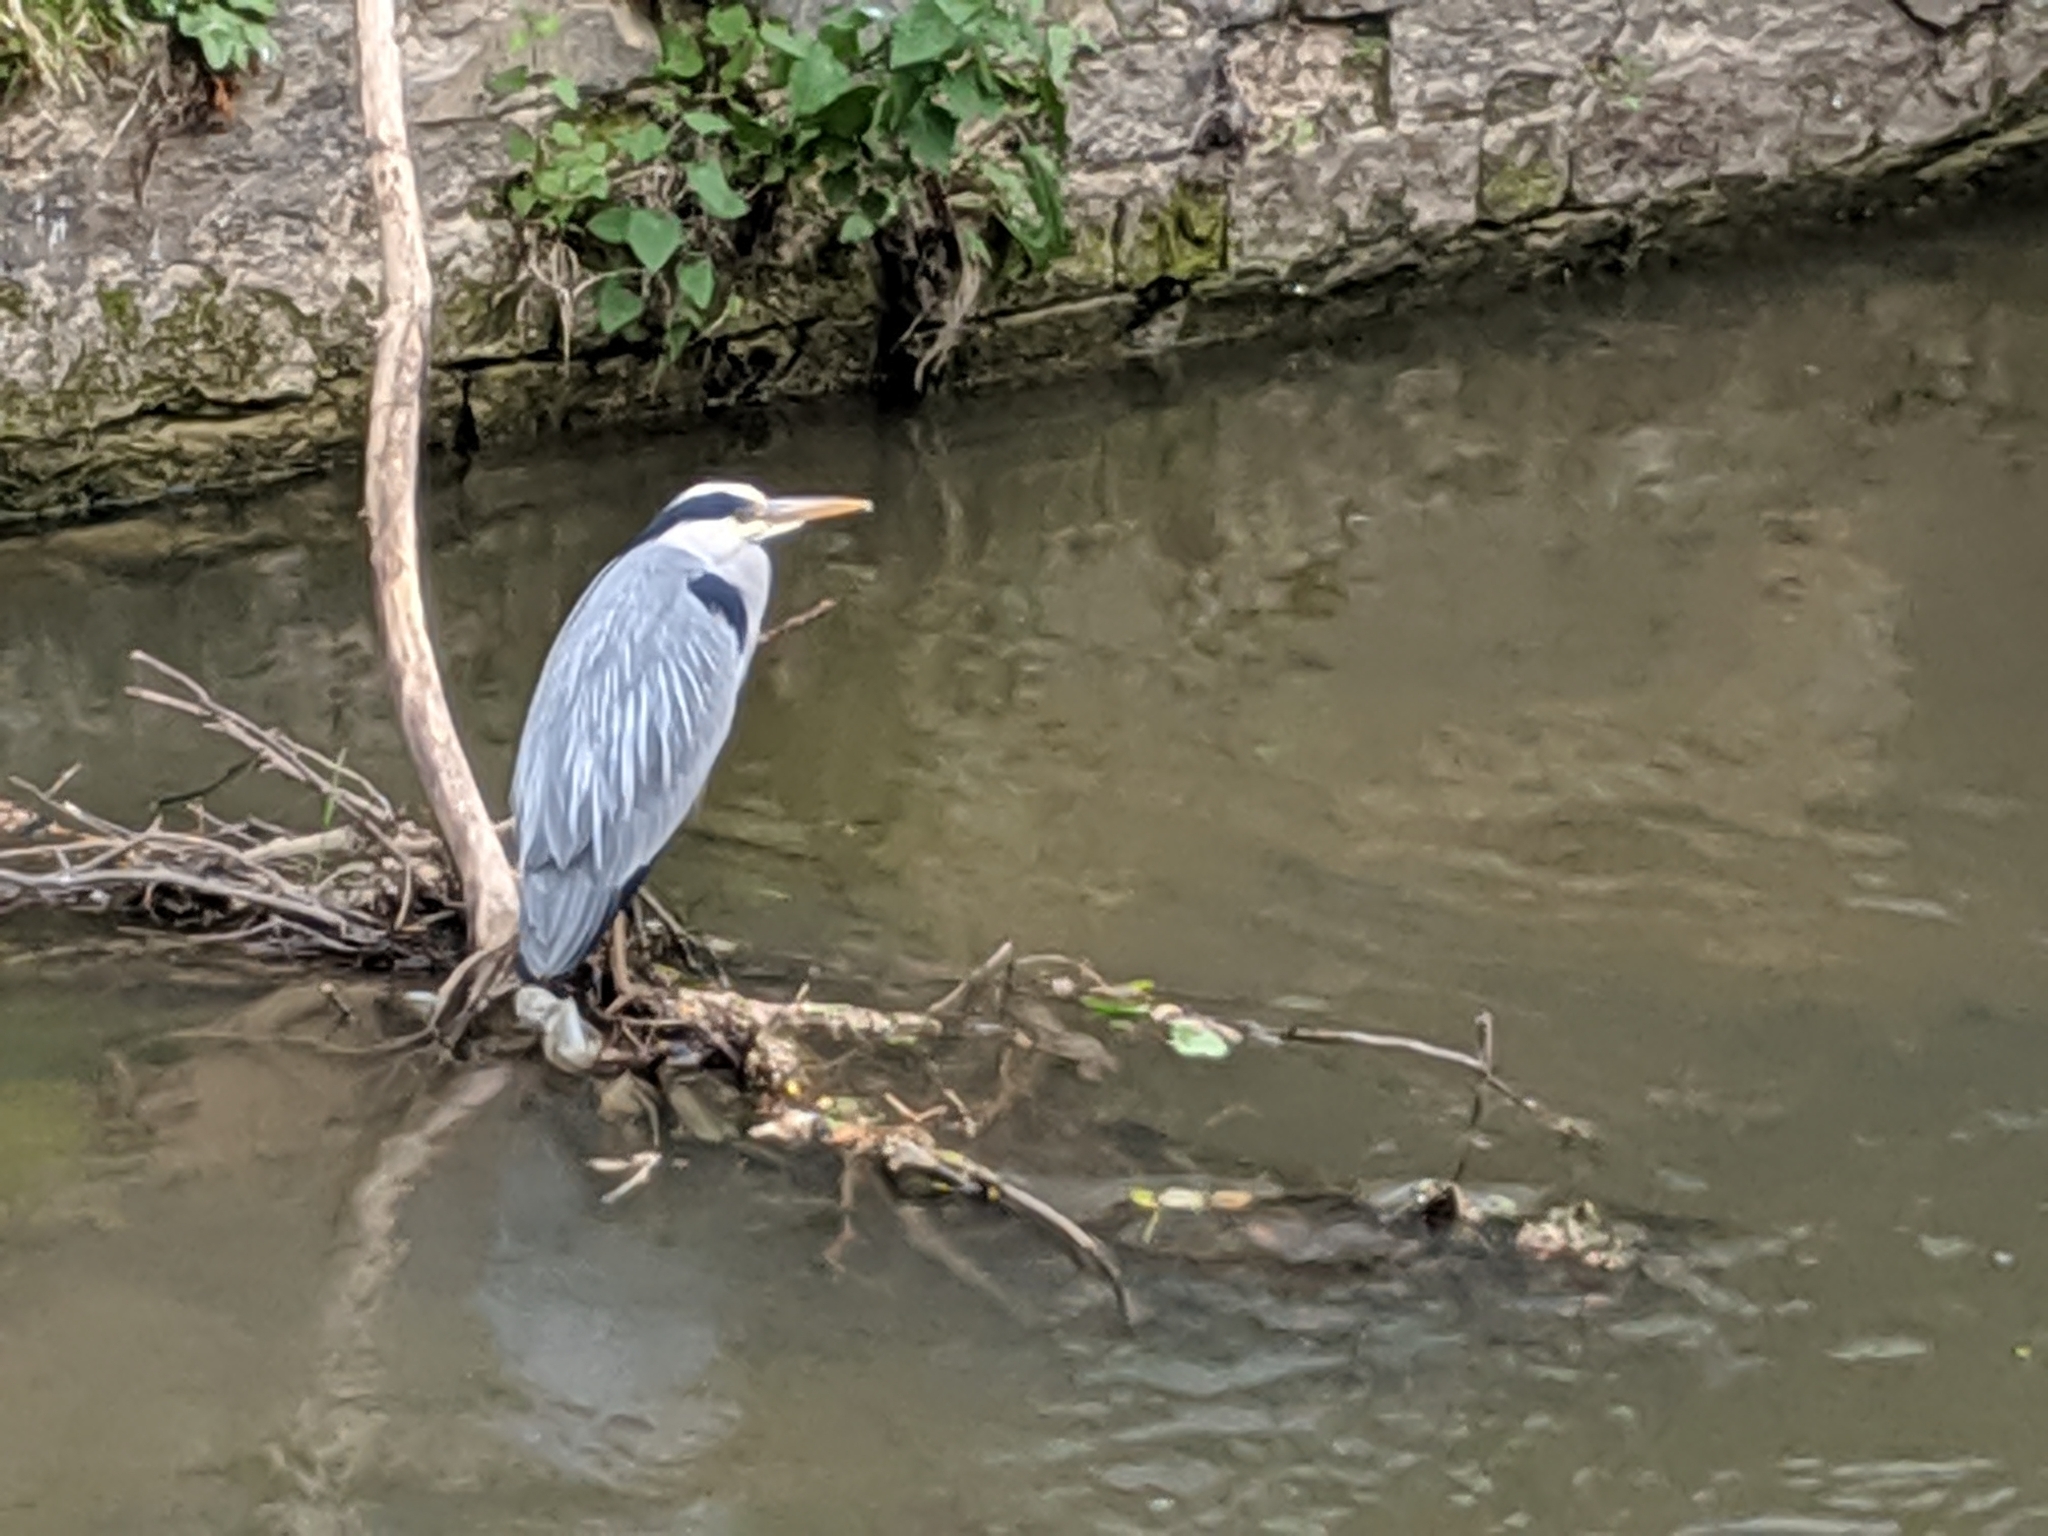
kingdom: Animalia
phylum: Chordata
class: Aves
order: Pelecaniformes
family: Ardeidae
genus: Ardea
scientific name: Ardea cinerea
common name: Grey heron
